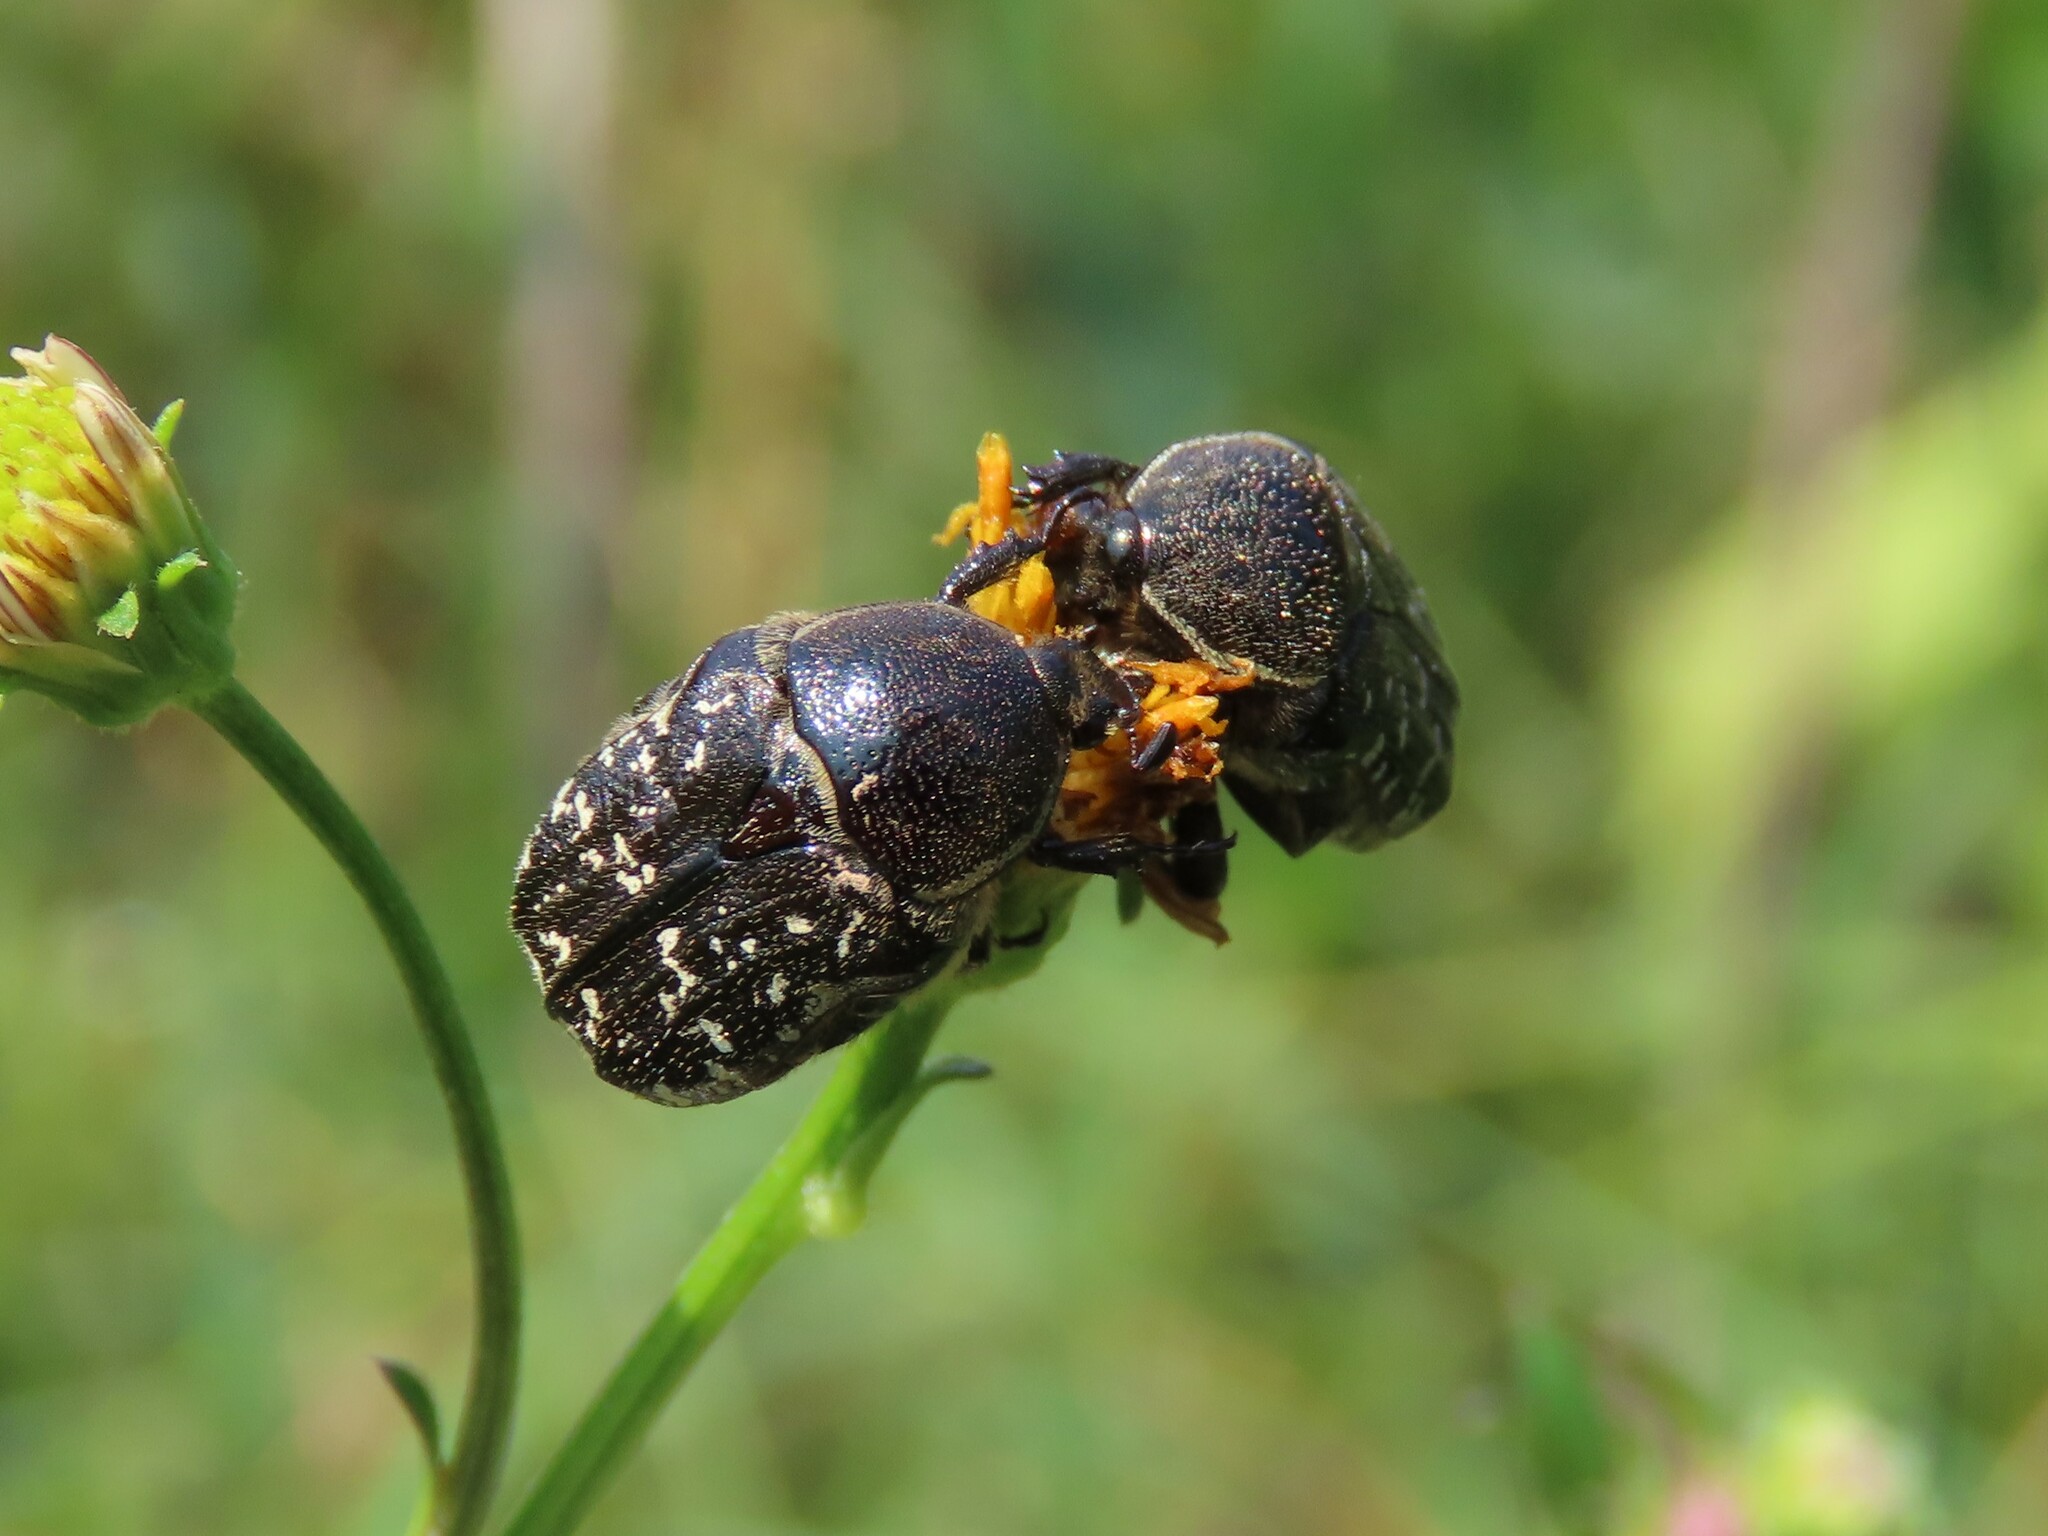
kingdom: Animalia
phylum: Arthropoda
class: Insecta
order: Coleoptera
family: Scarabaeidae
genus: Euphoria
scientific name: Euphoria sepulcralis
